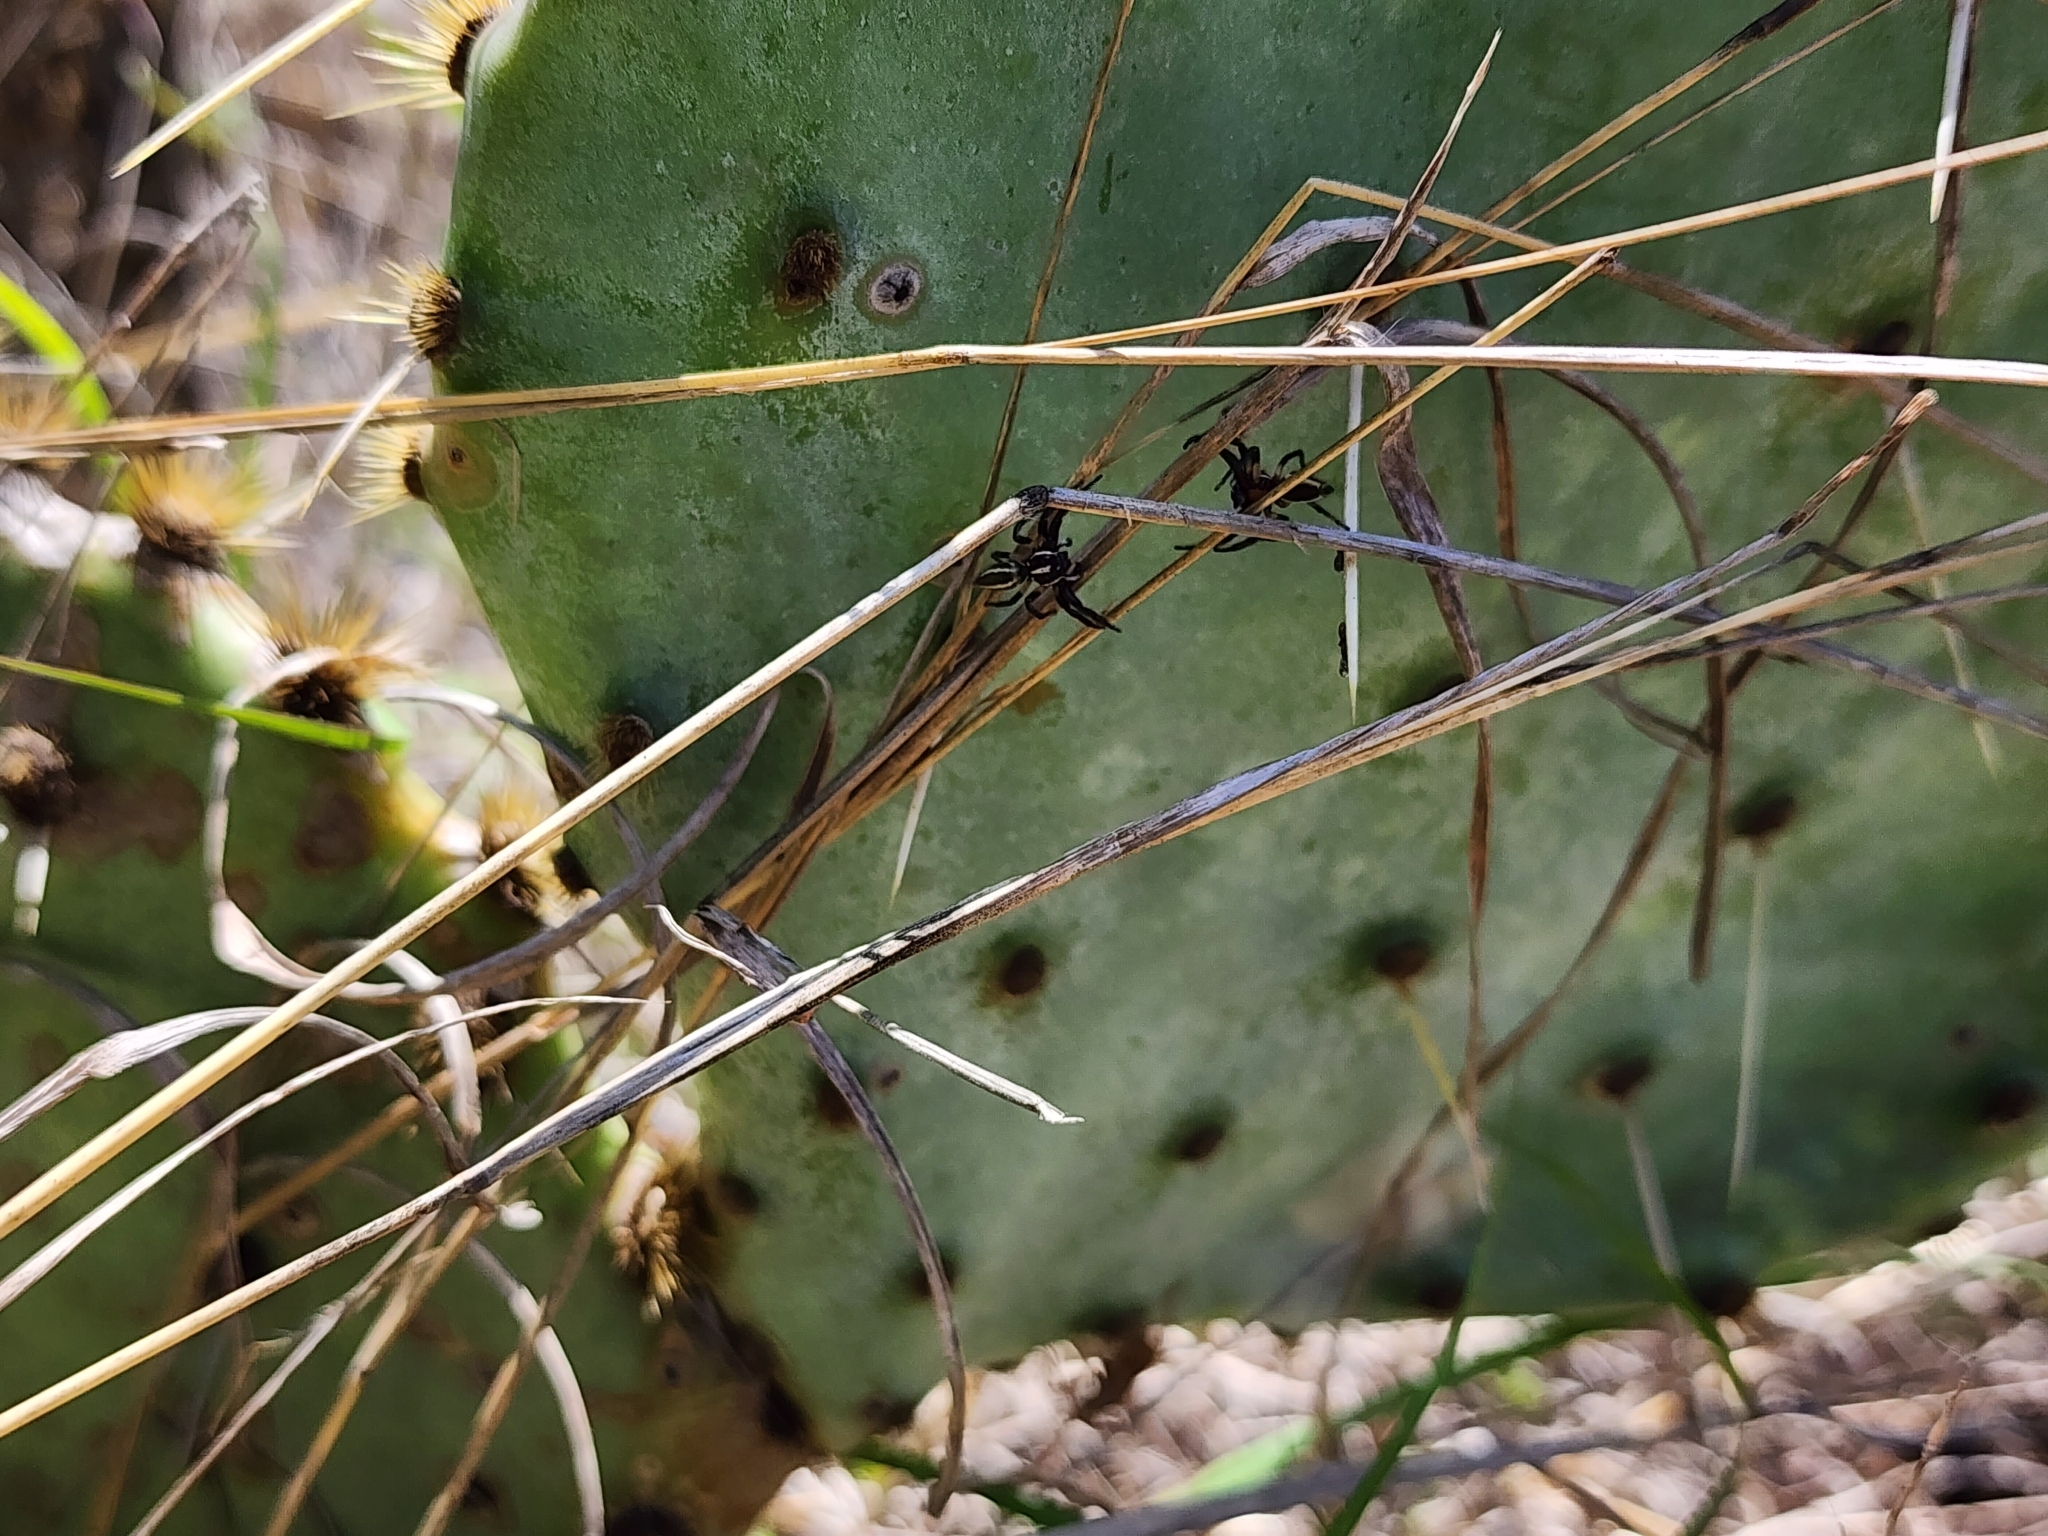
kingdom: Animalia
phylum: Arthropoda
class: Arachnida
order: Araneae
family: Salticidae
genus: Colonus
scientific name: Colonus puerperus
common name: Jumping spiders
